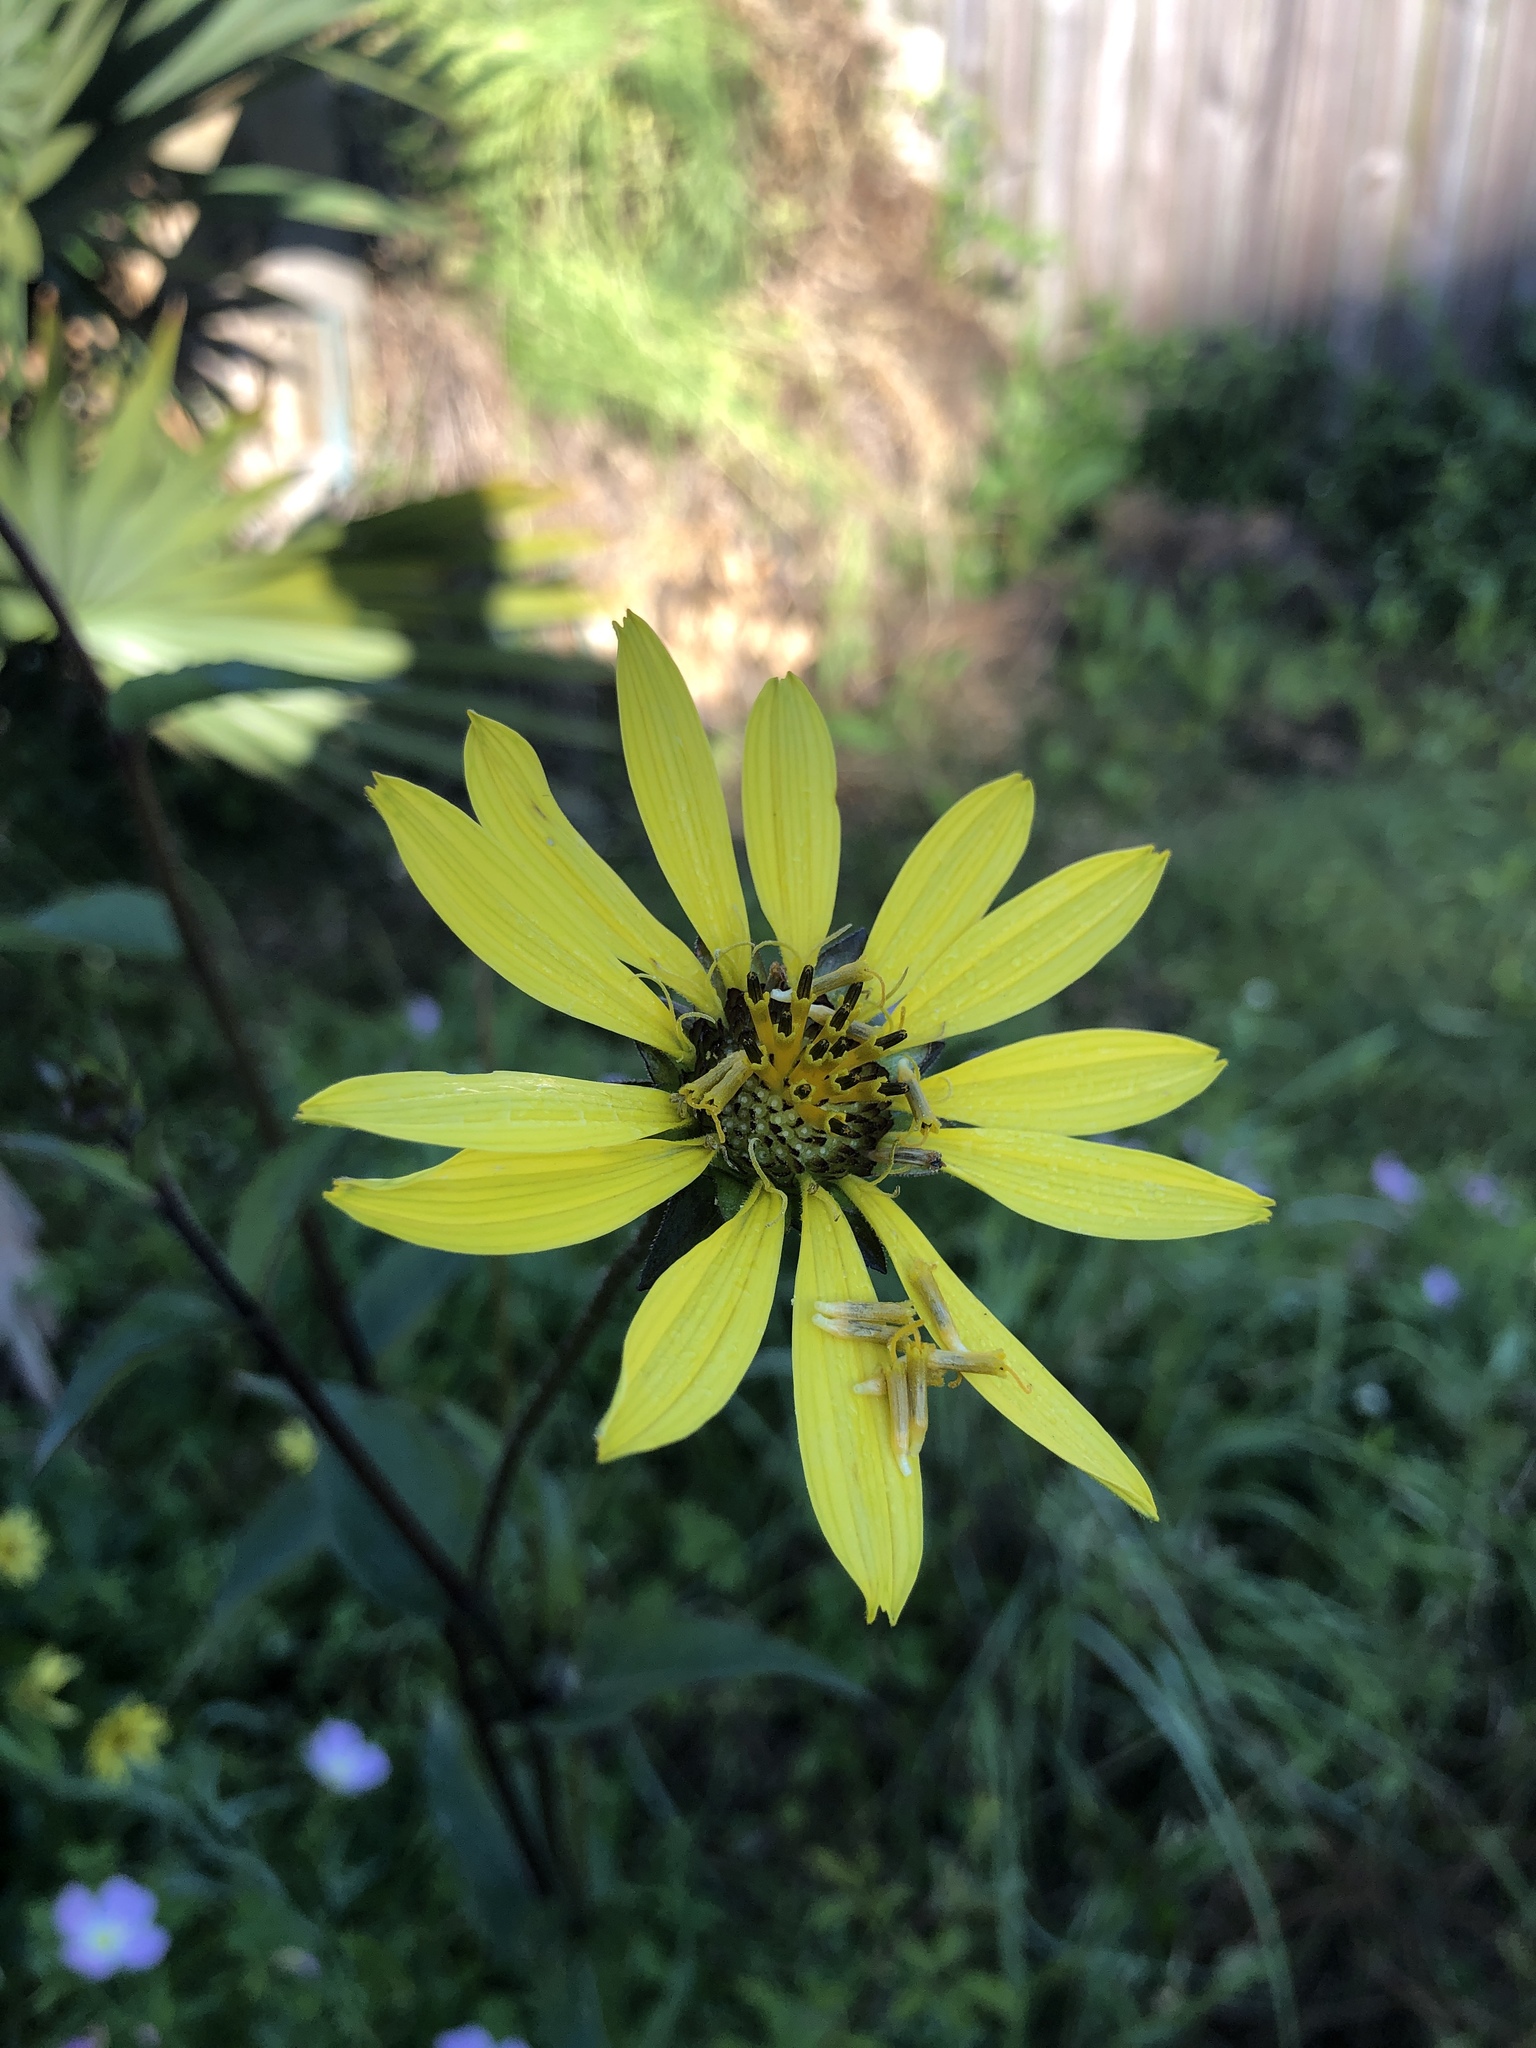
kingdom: Plantae
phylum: Tracheophyta
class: Magnoliopsida
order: Asterales
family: Asteraceae
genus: Silphium
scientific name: Silphium radula
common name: Roughleaf rosinweed
